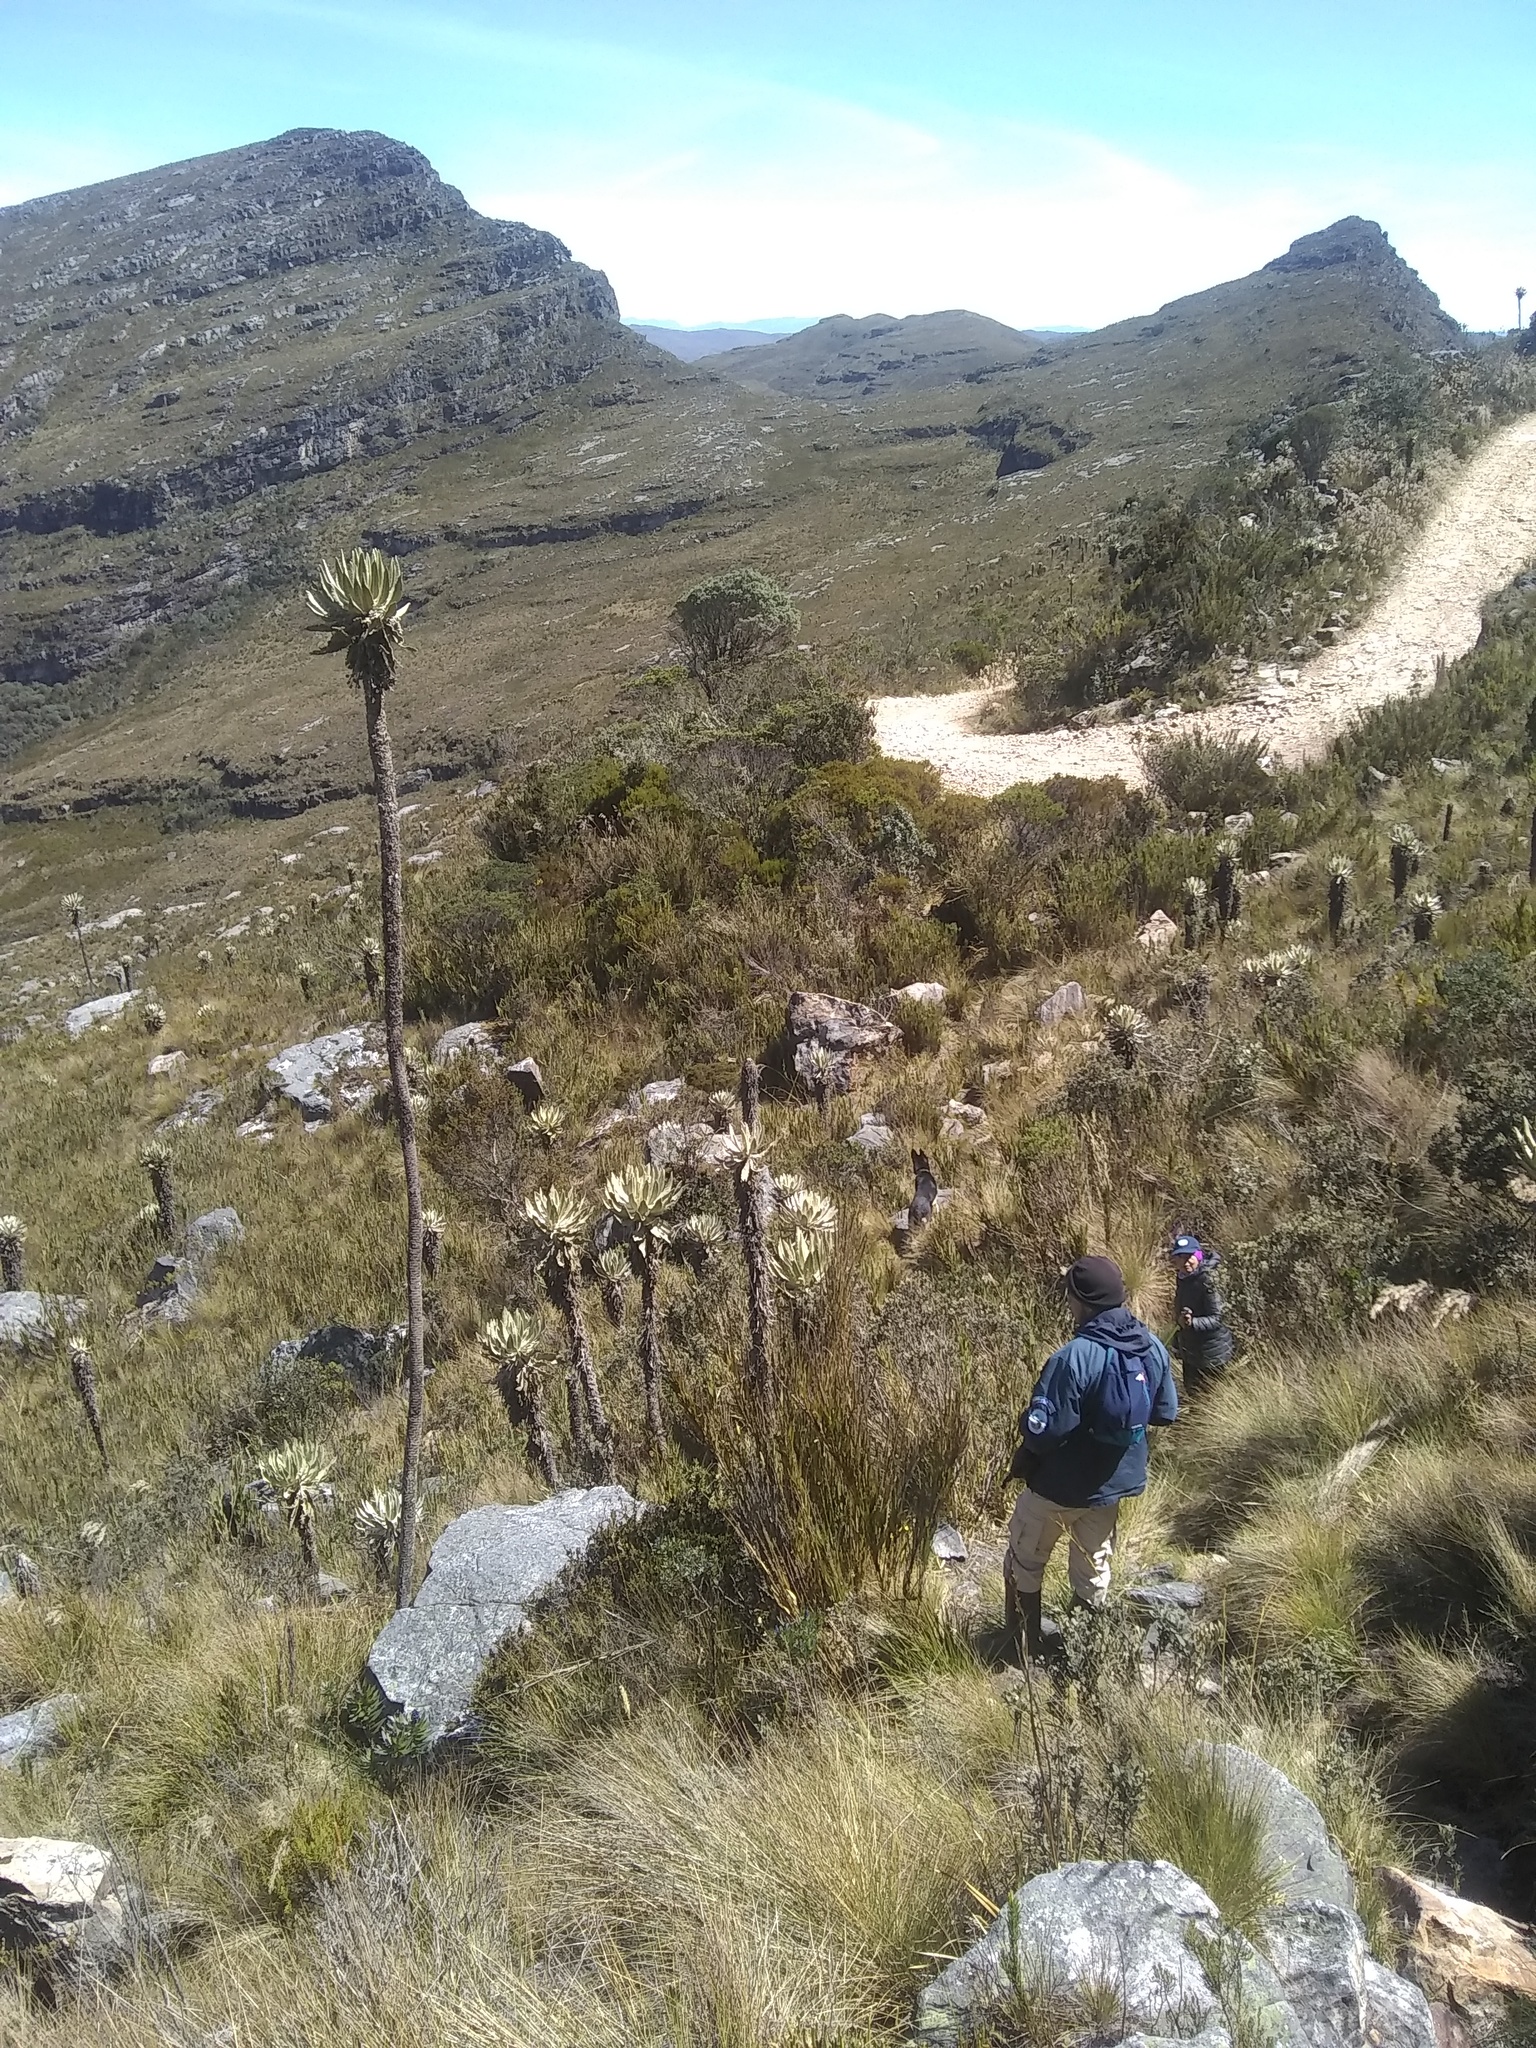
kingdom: Plantae
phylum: Tracheophyta
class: Magnoliopsida
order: Asterales
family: Asteraceae
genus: Espeletia
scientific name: Espeletia cachaluensis
